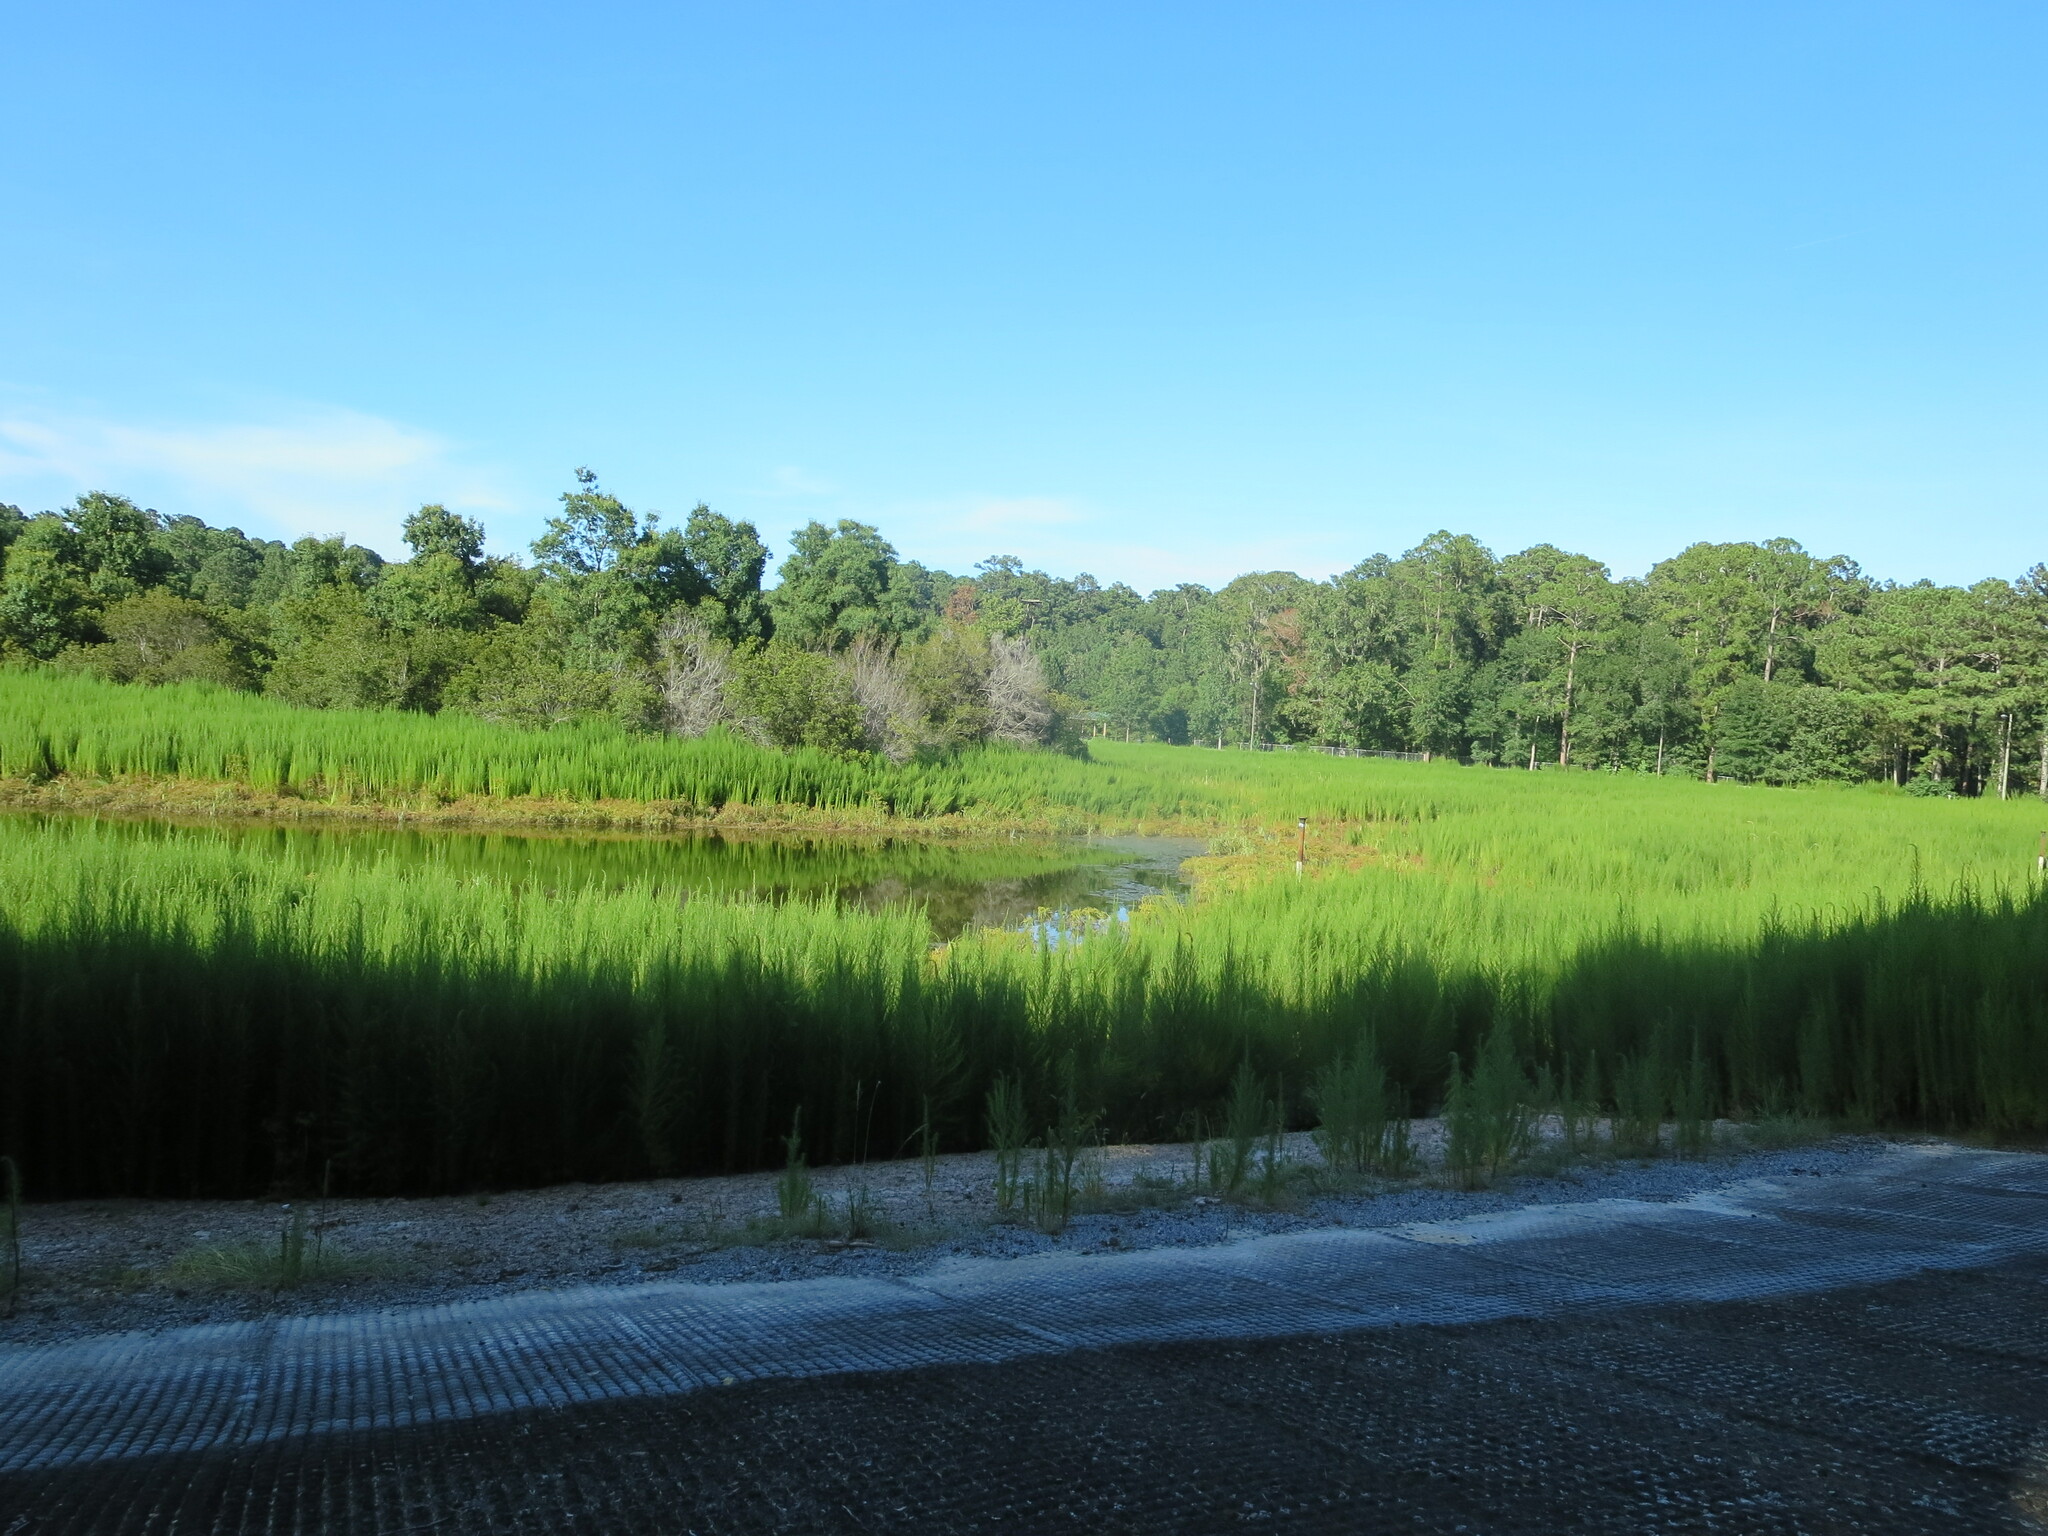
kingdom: Plantae
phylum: Tracheophyta
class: Magnoliopsida
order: Asterales
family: Asteraceae
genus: Eupatorium
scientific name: Eupatorium capillifolium
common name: Dog-fennel
